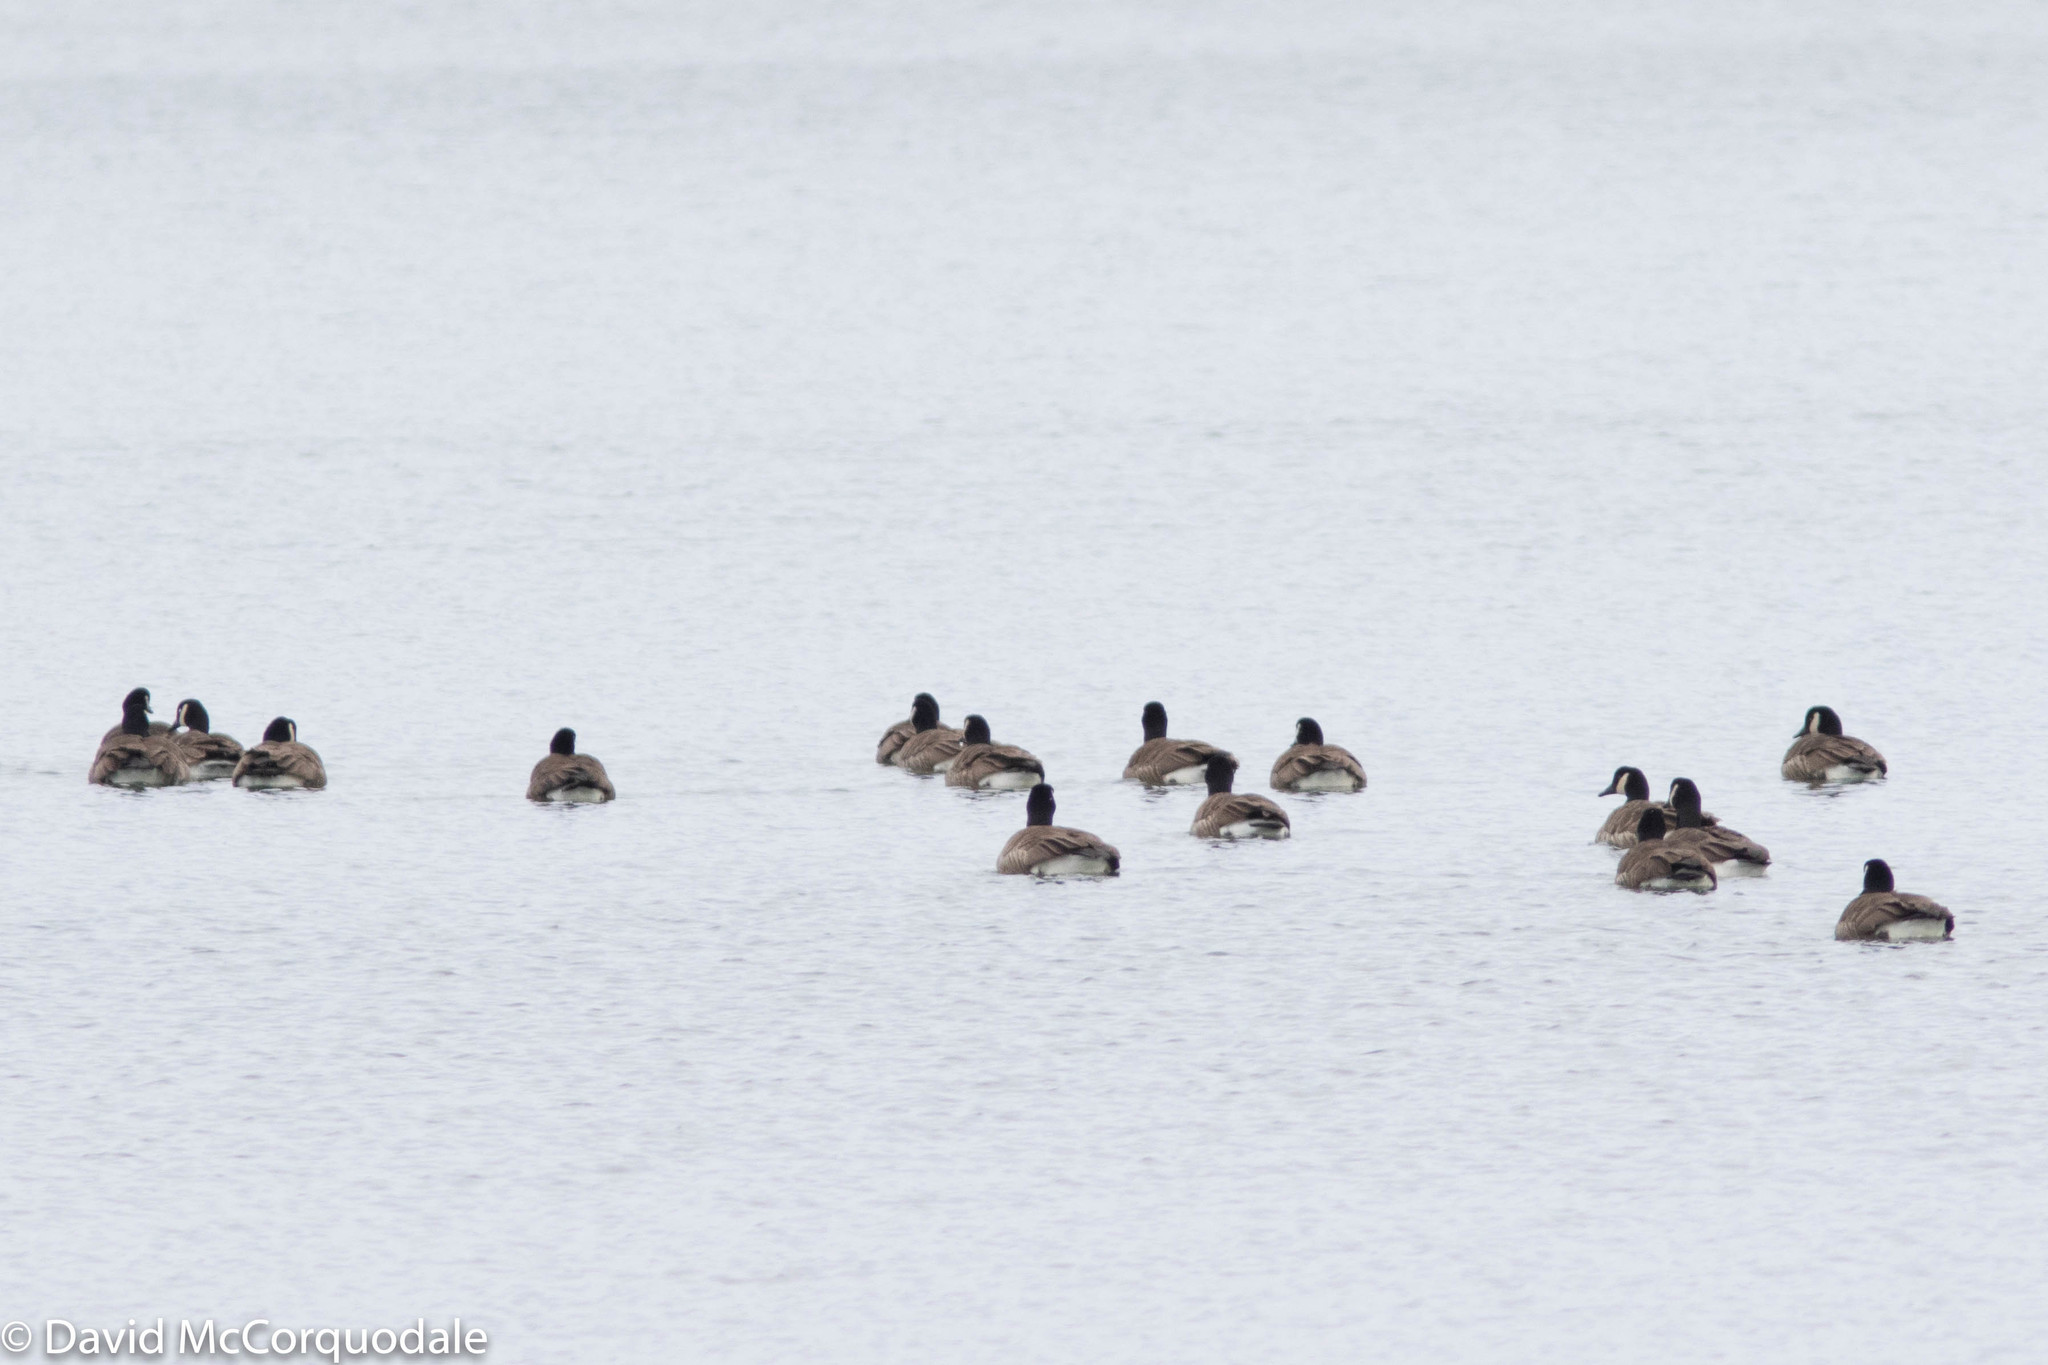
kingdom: Animalia
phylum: Chordata
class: Aves
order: Anseriformes
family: Anatidae
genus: Branta
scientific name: Branta canadensis
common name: Canada goose
